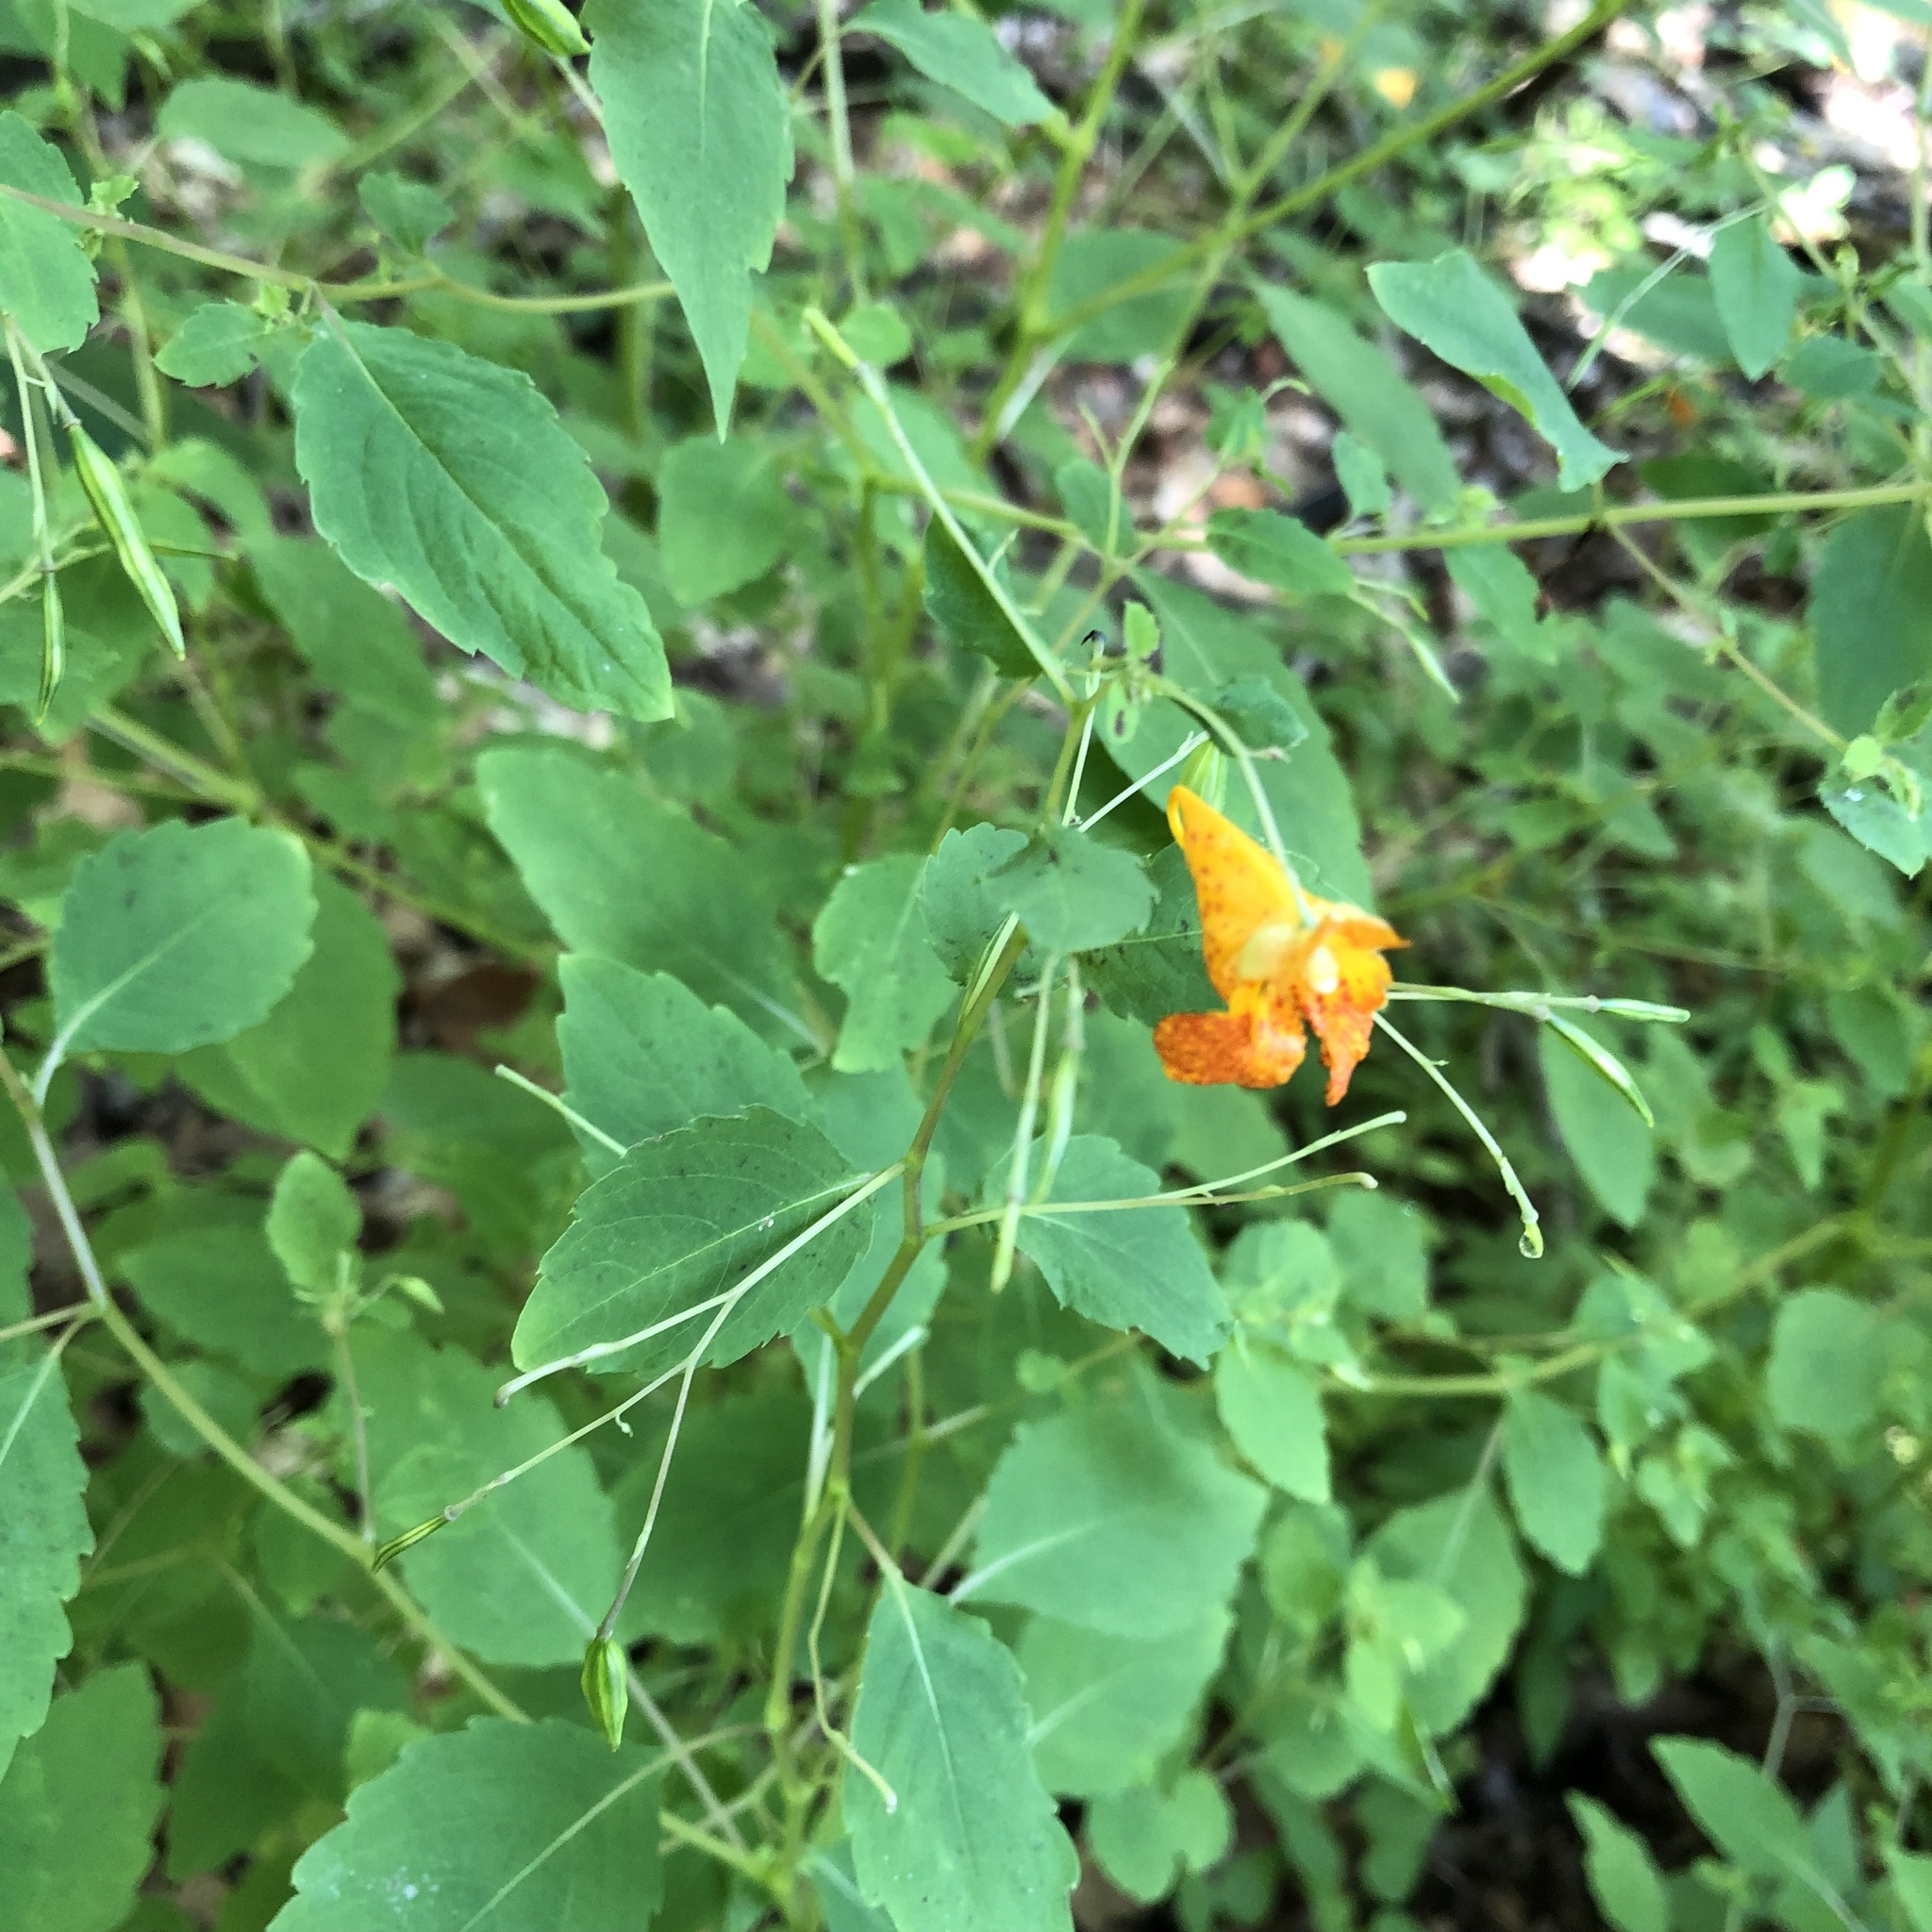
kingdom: Plantae
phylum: Tracheophyta
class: Magnoliopsida
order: Ericales
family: Balsaminaceae
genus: Impatiens
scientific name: Impatiens capensis
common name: Orange balsam
